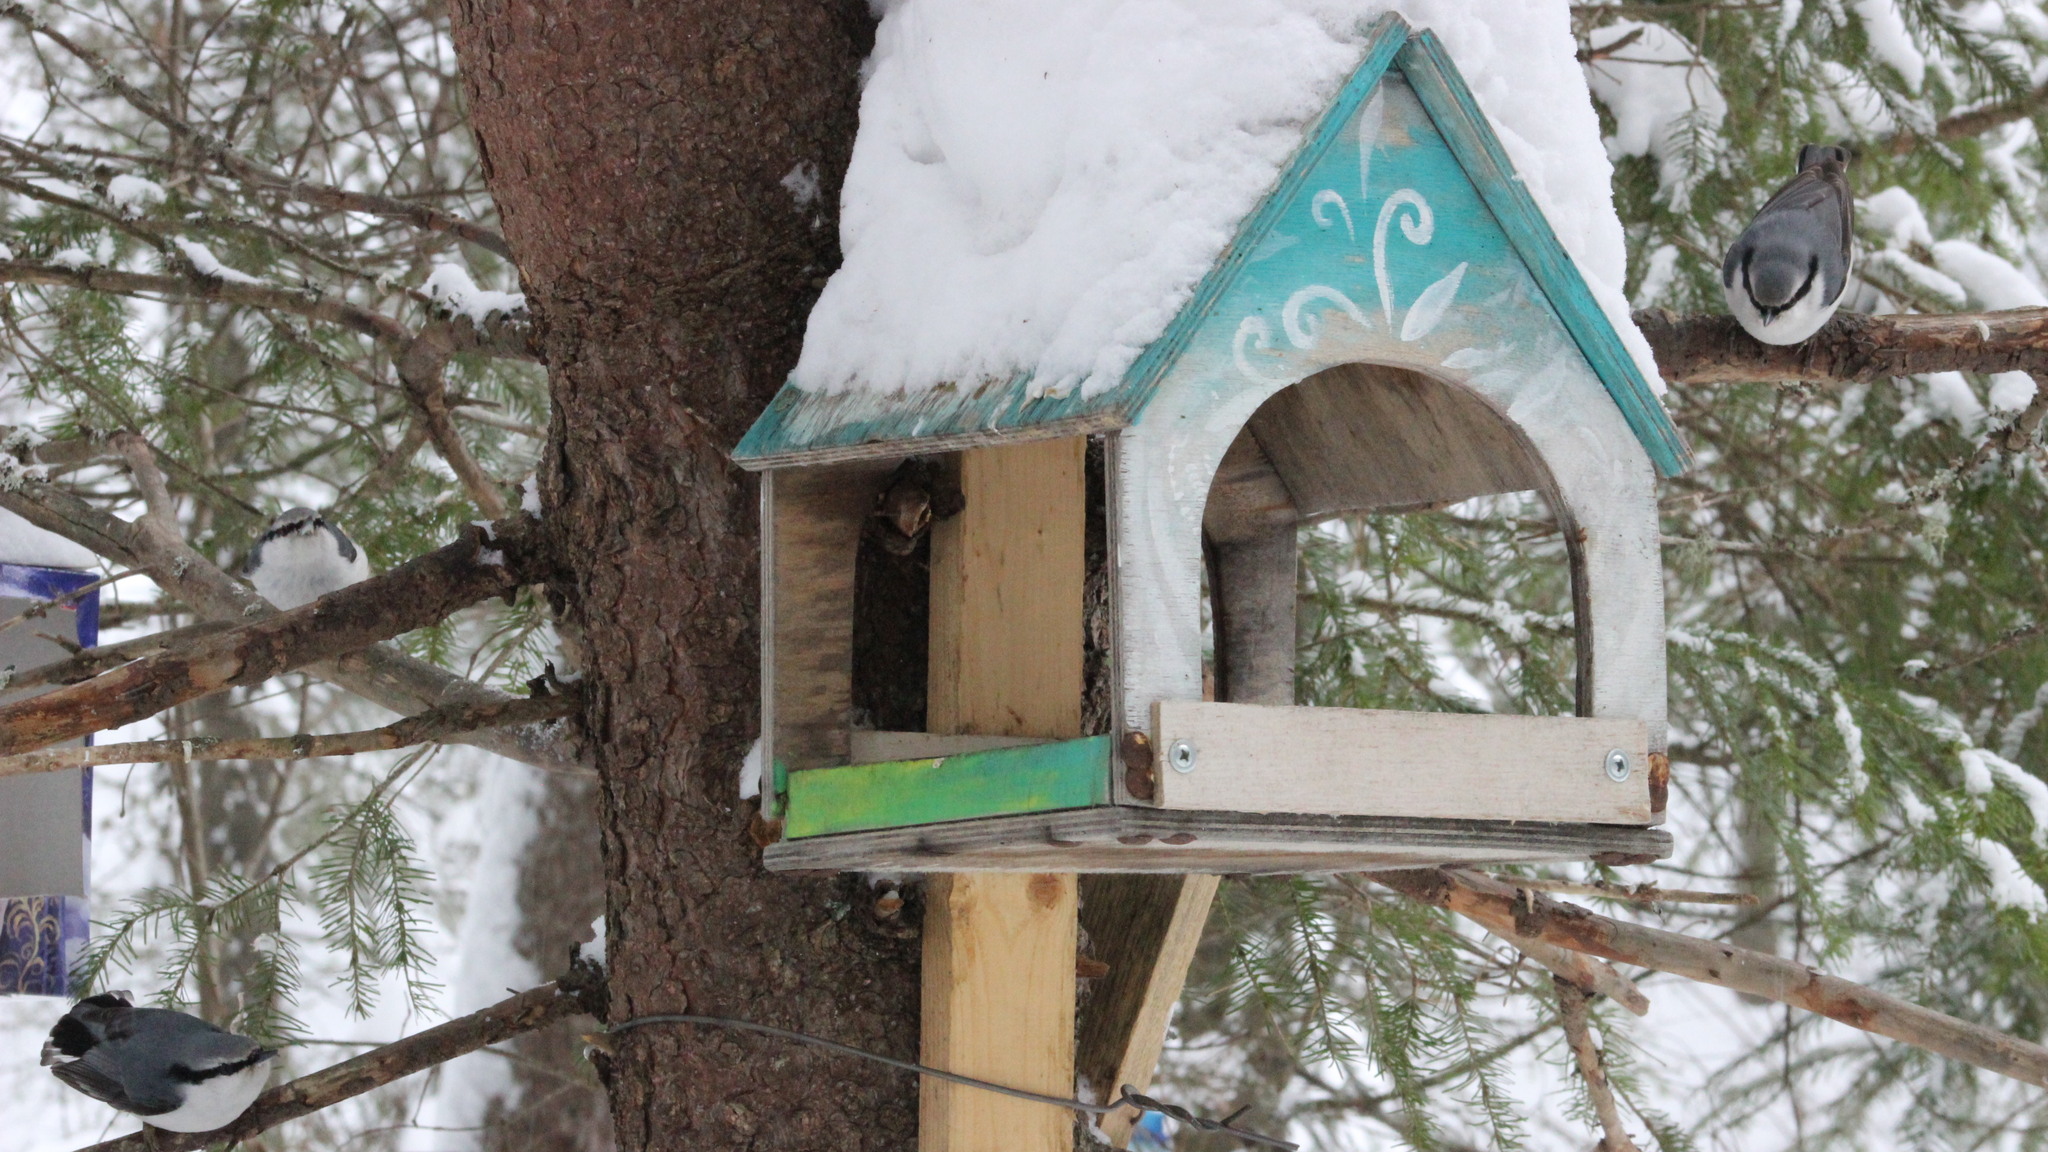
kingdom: Animalia
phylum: Chordata
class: Aves
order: Passeriformes
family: Sittidae
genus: Sitta
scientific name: Sitta europaea
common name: Eurasian nuthatch
